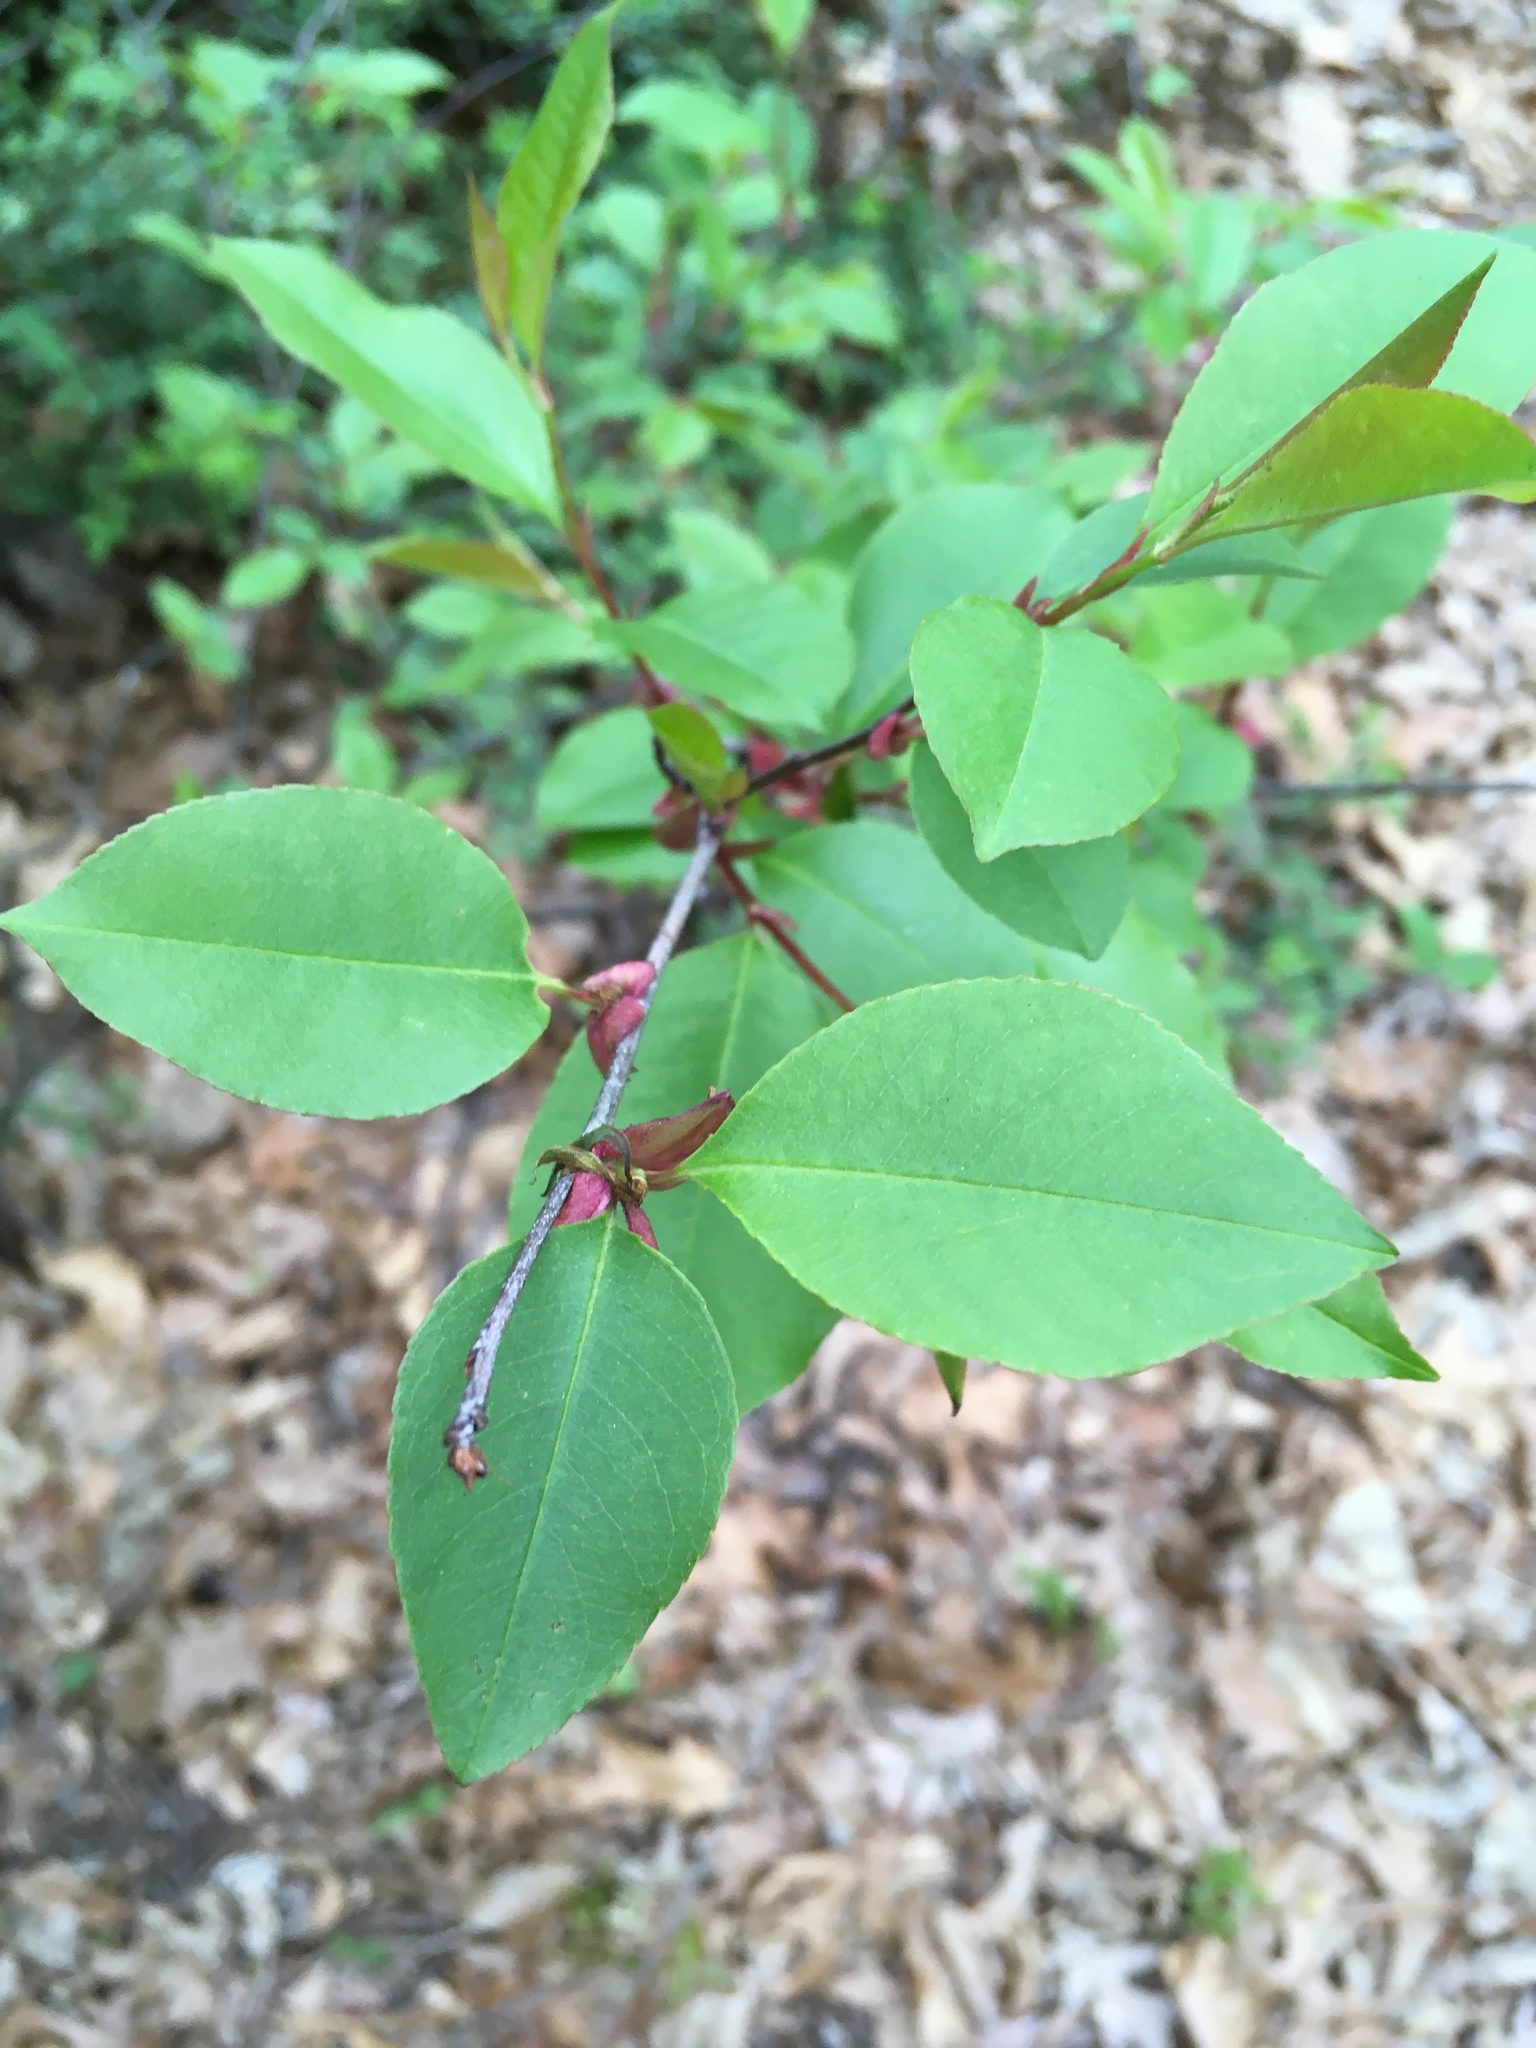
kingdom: Plantae
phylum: Tracheophyta
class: Magnoliopsida
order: Rosales
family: Rosaceae
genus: Prunus
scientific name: Prunus serotina
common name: Black cherry
